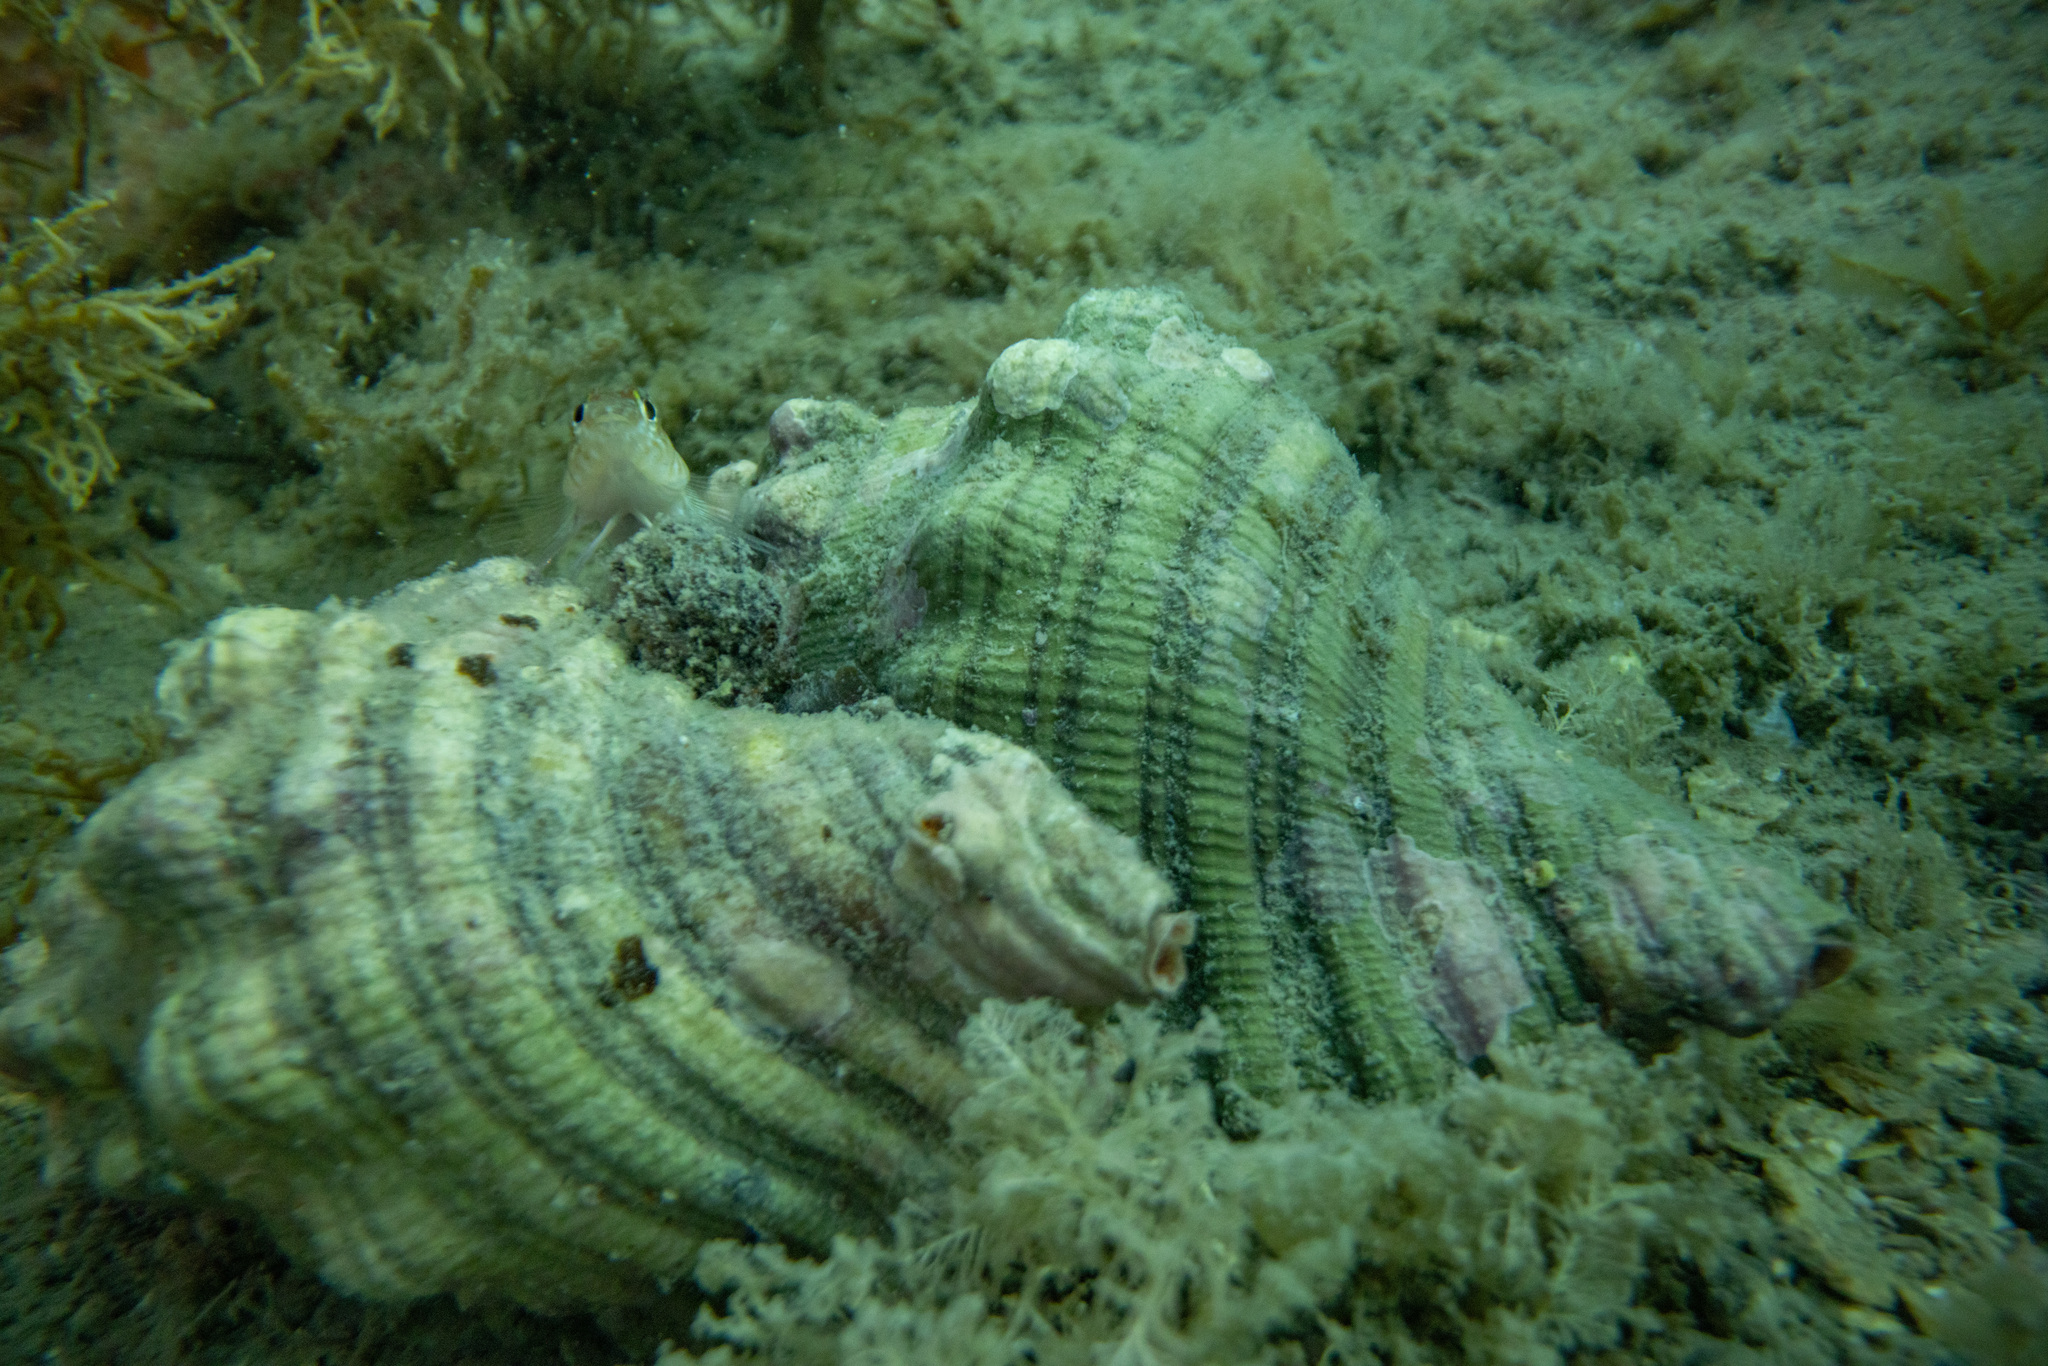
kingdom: Animalia
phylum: Mollusca
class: Gastropoda
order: Littorinimorpha
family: Cymatiidae
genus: Cabestana
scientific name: Cabestana spengleri
